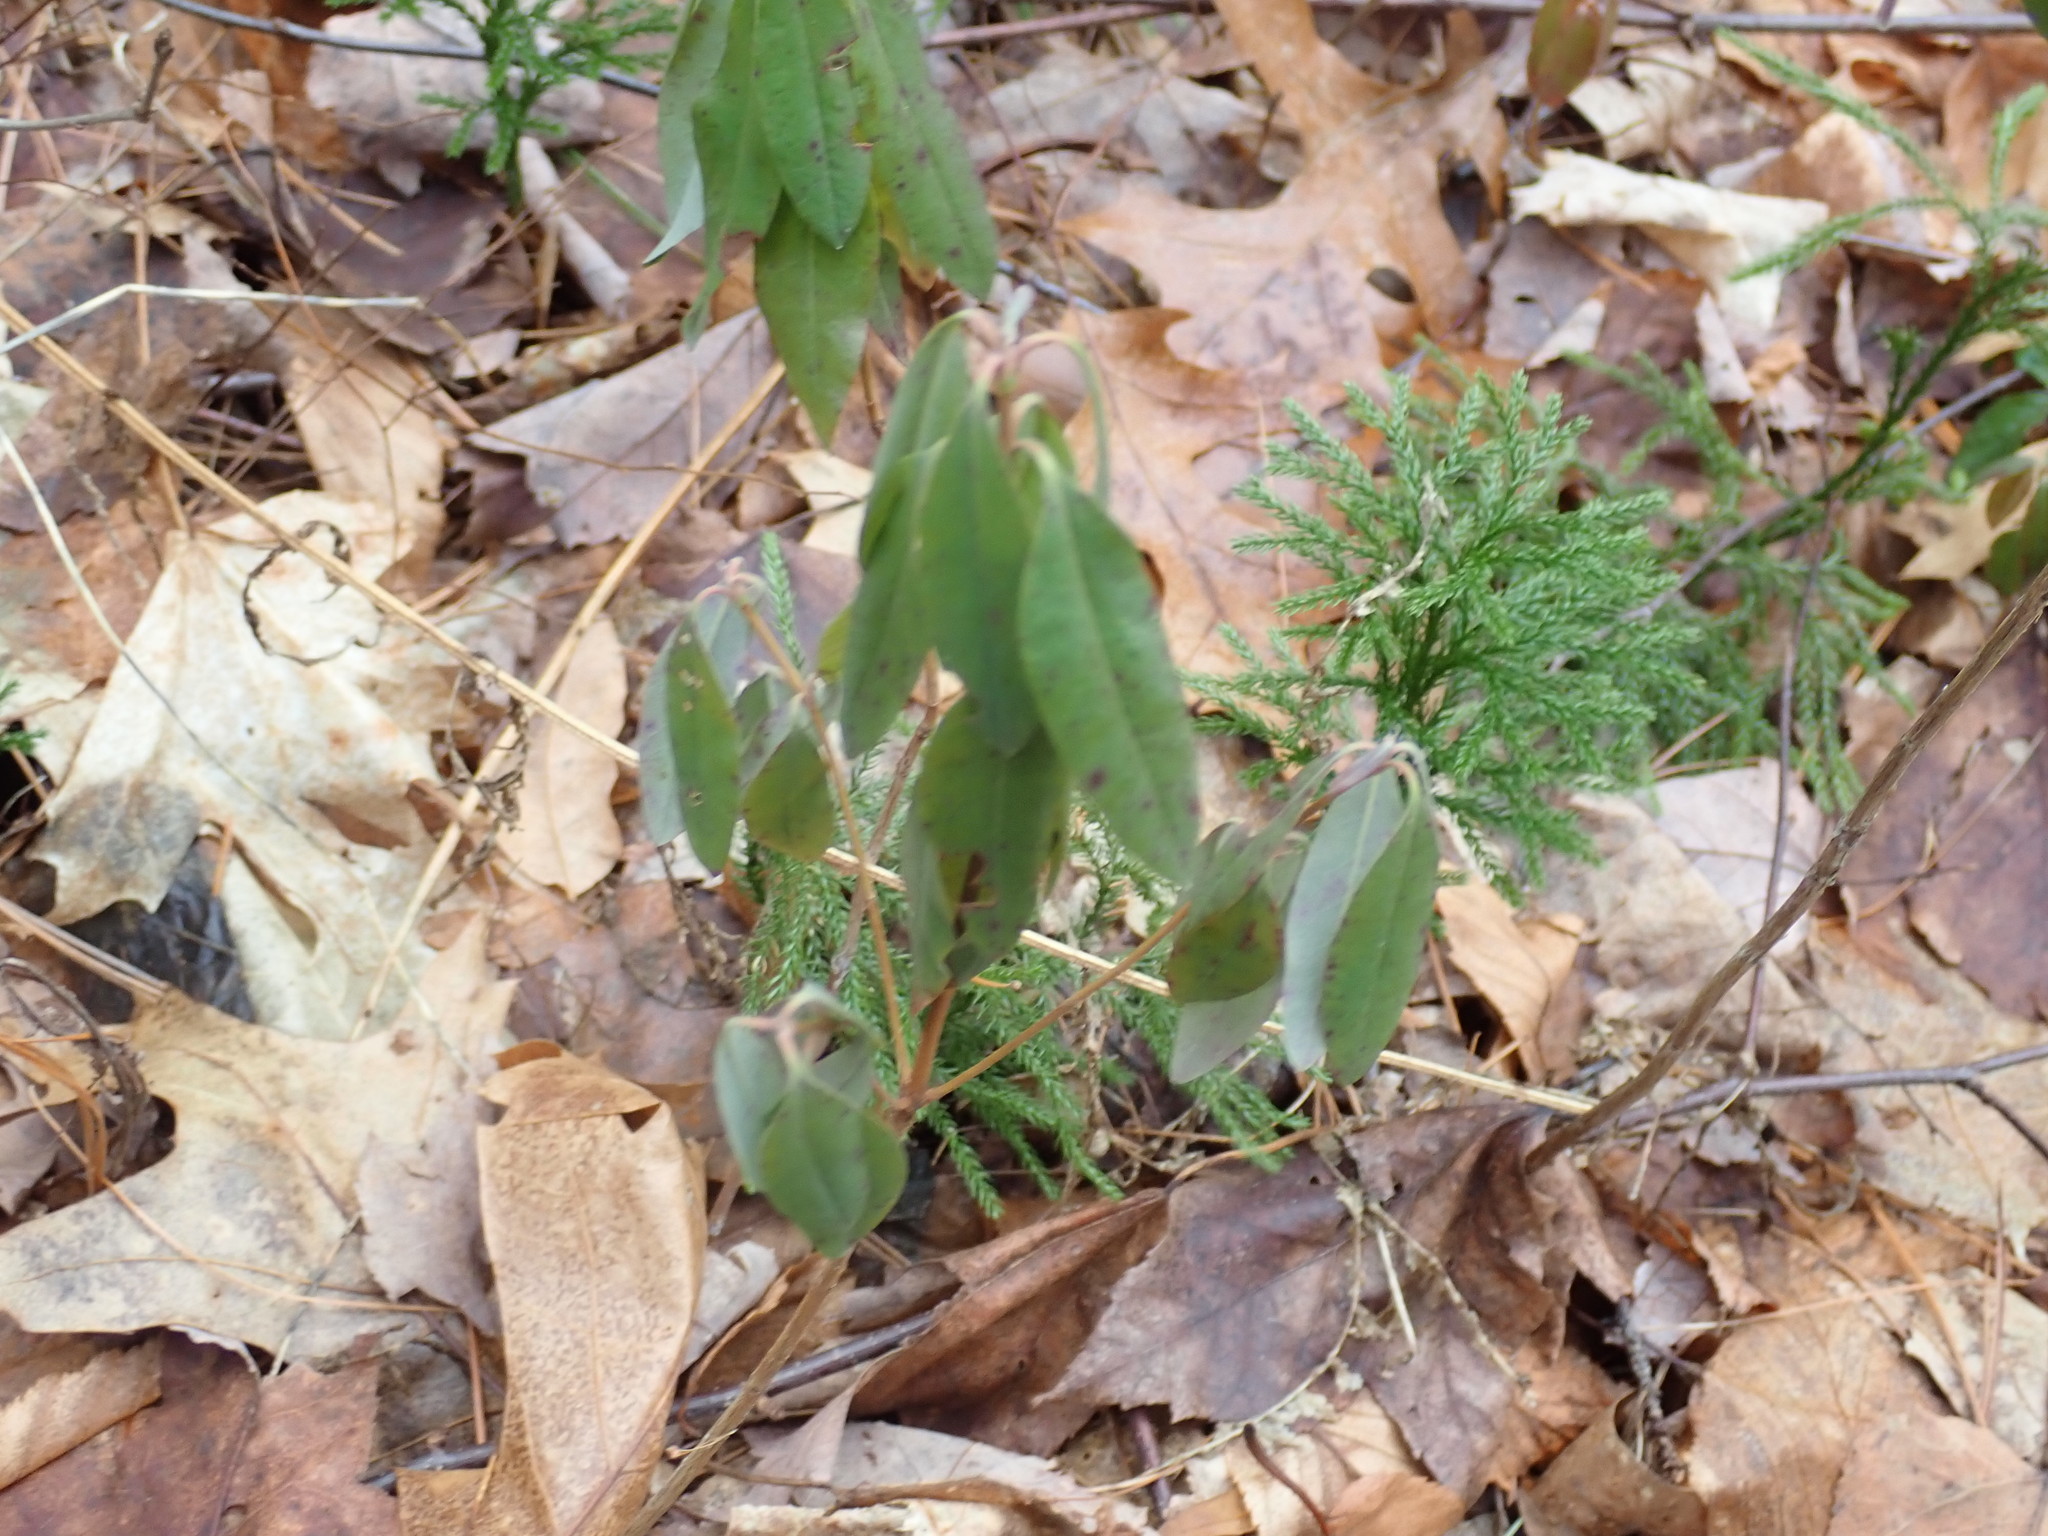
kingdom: Plantae
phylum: Tracheophyta
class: Magnoliopsida
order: Ericales
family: Ericaceae
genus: Kalmia
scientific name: Kalmia angustifolia
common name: Sheep-laurel
